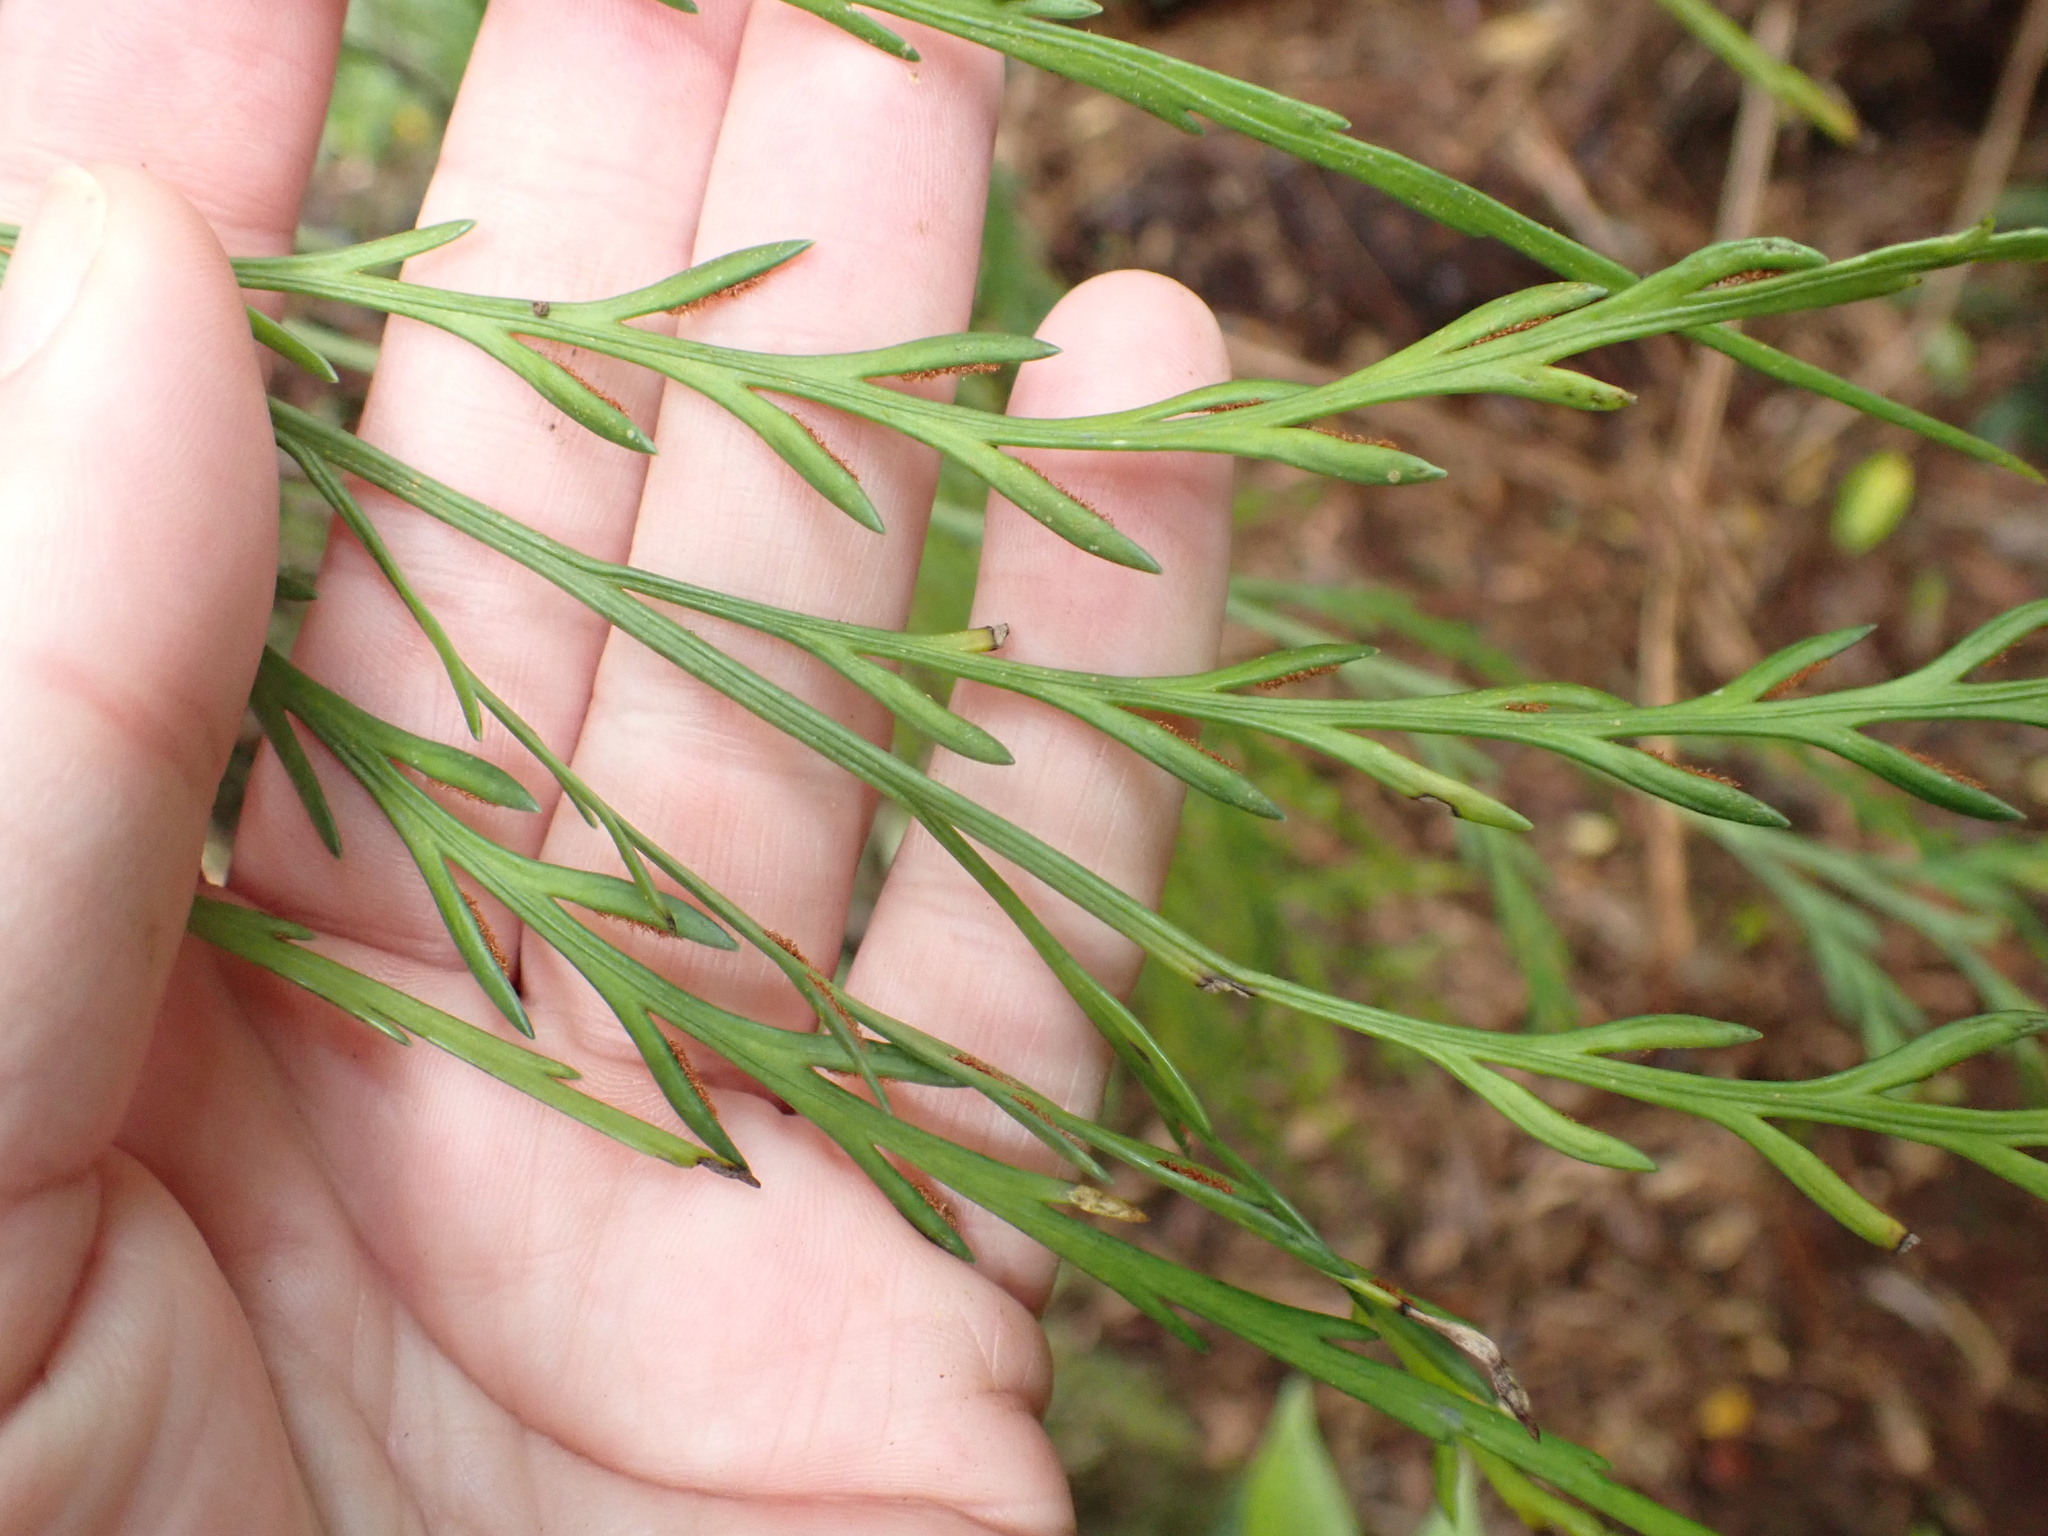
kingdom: Plantae
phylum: Tracheophyta
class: Polypodiopsida
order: Polypodiales
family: Aspleniaceae
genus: Asplenium
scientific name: Asplenium flaccidum
